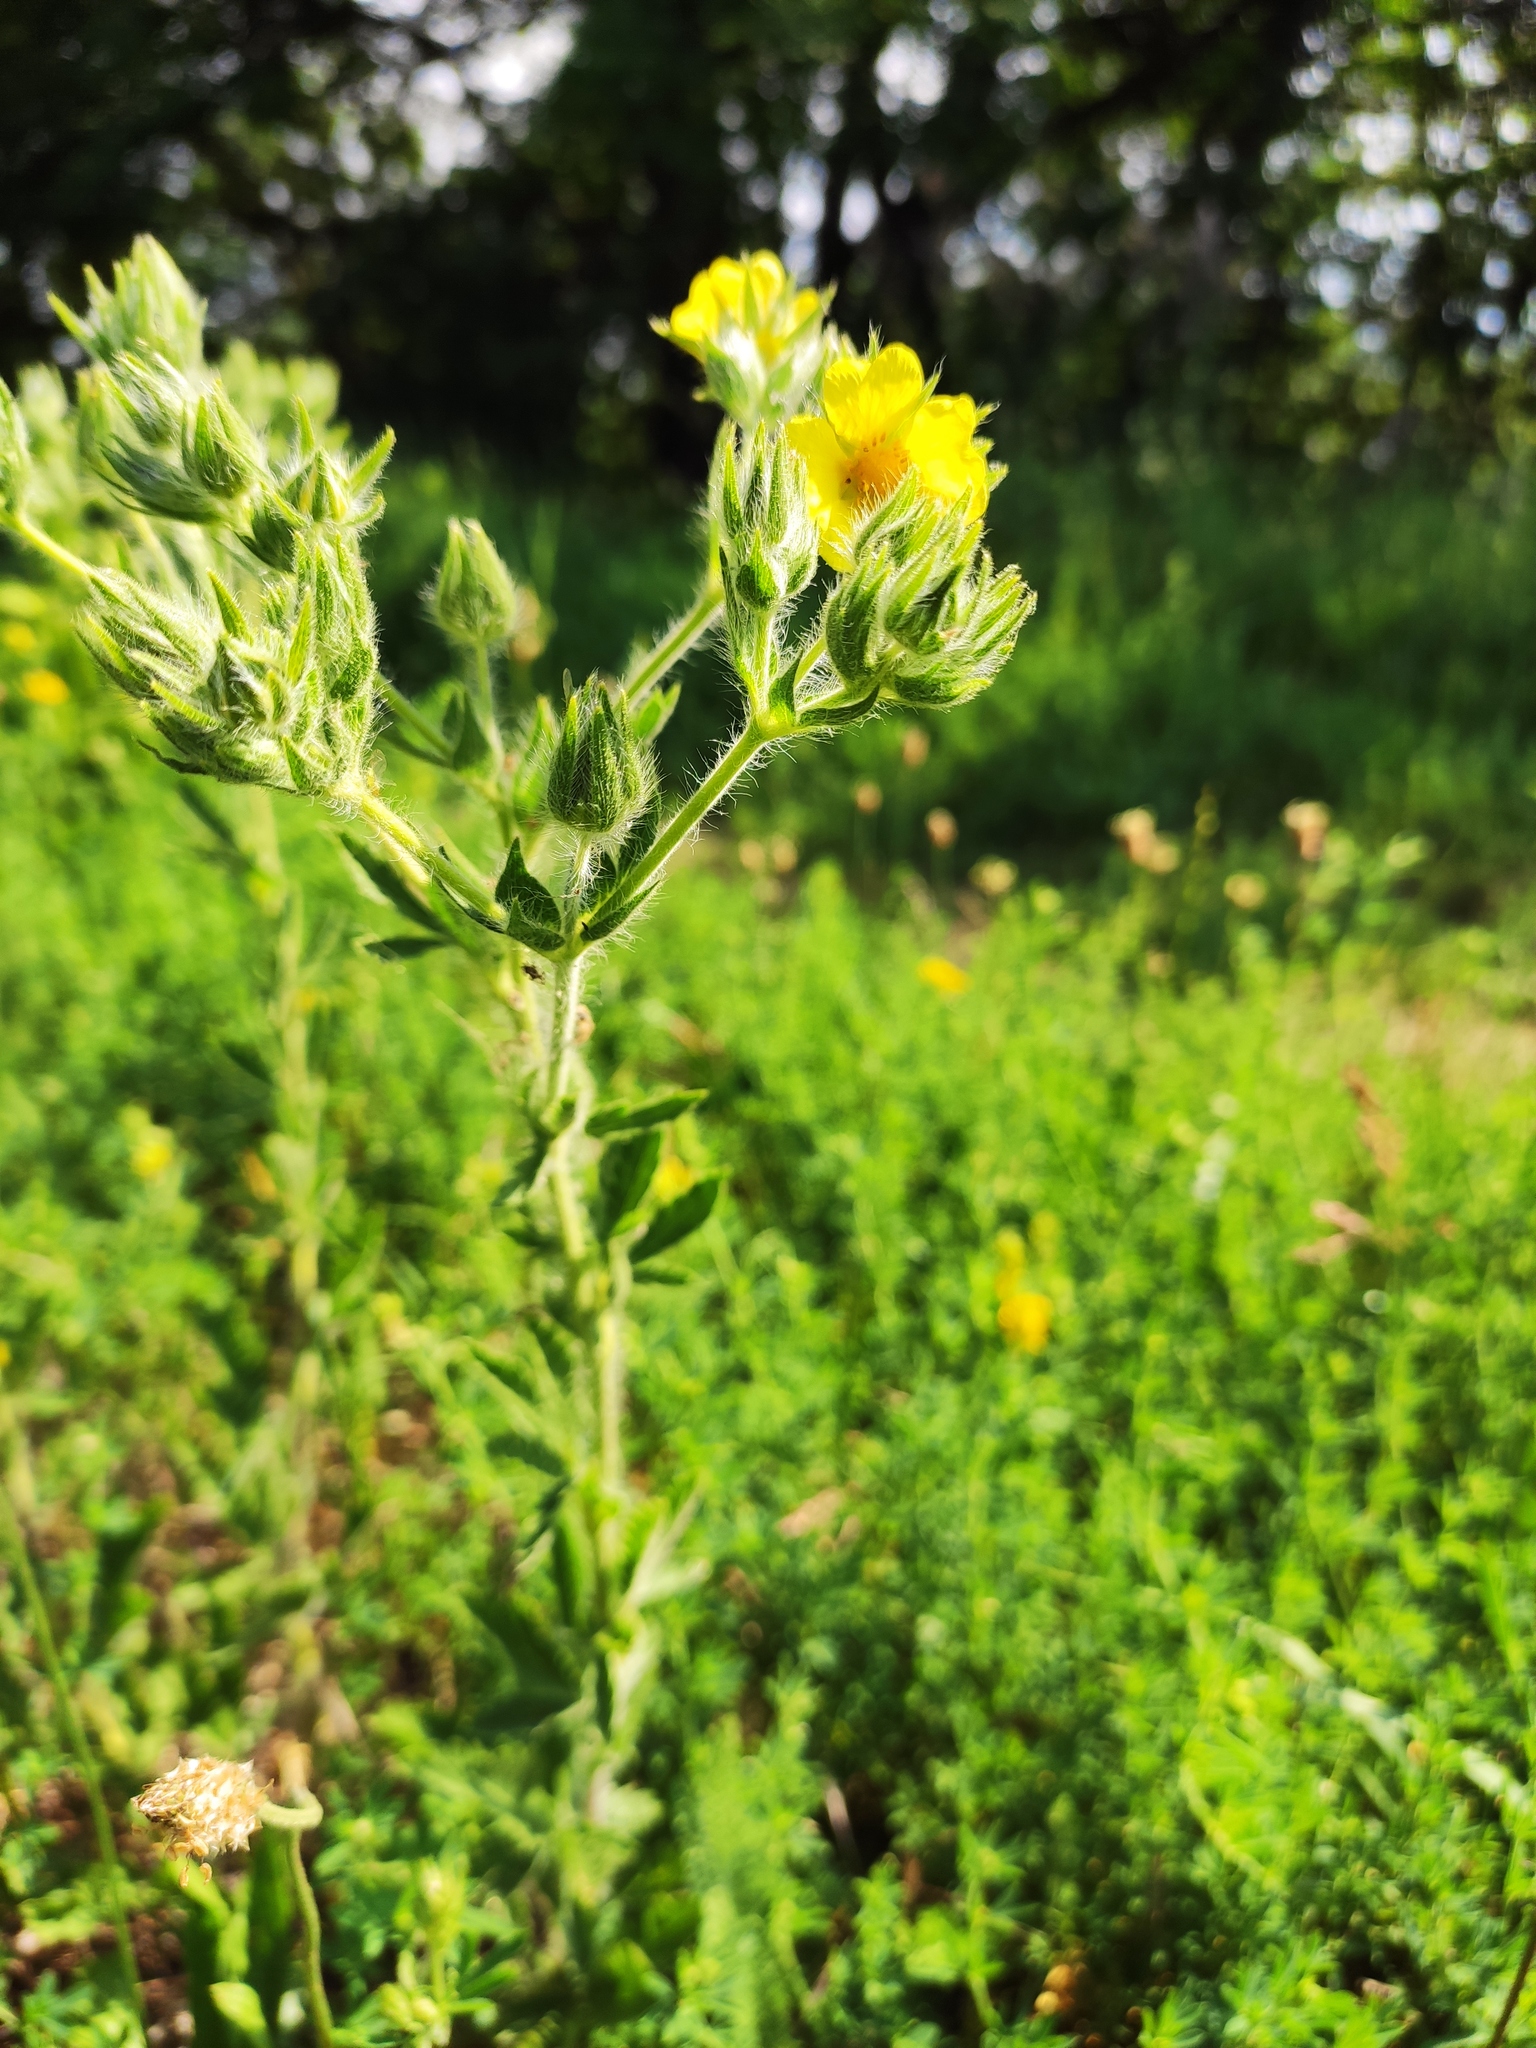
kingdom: Plantae
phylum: Tracheophyta
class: Magnoliopsida
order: Rosales
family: Rosaceae
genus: Potentilla
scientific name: Potentilla recta
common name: Sulphur cinquefoil
